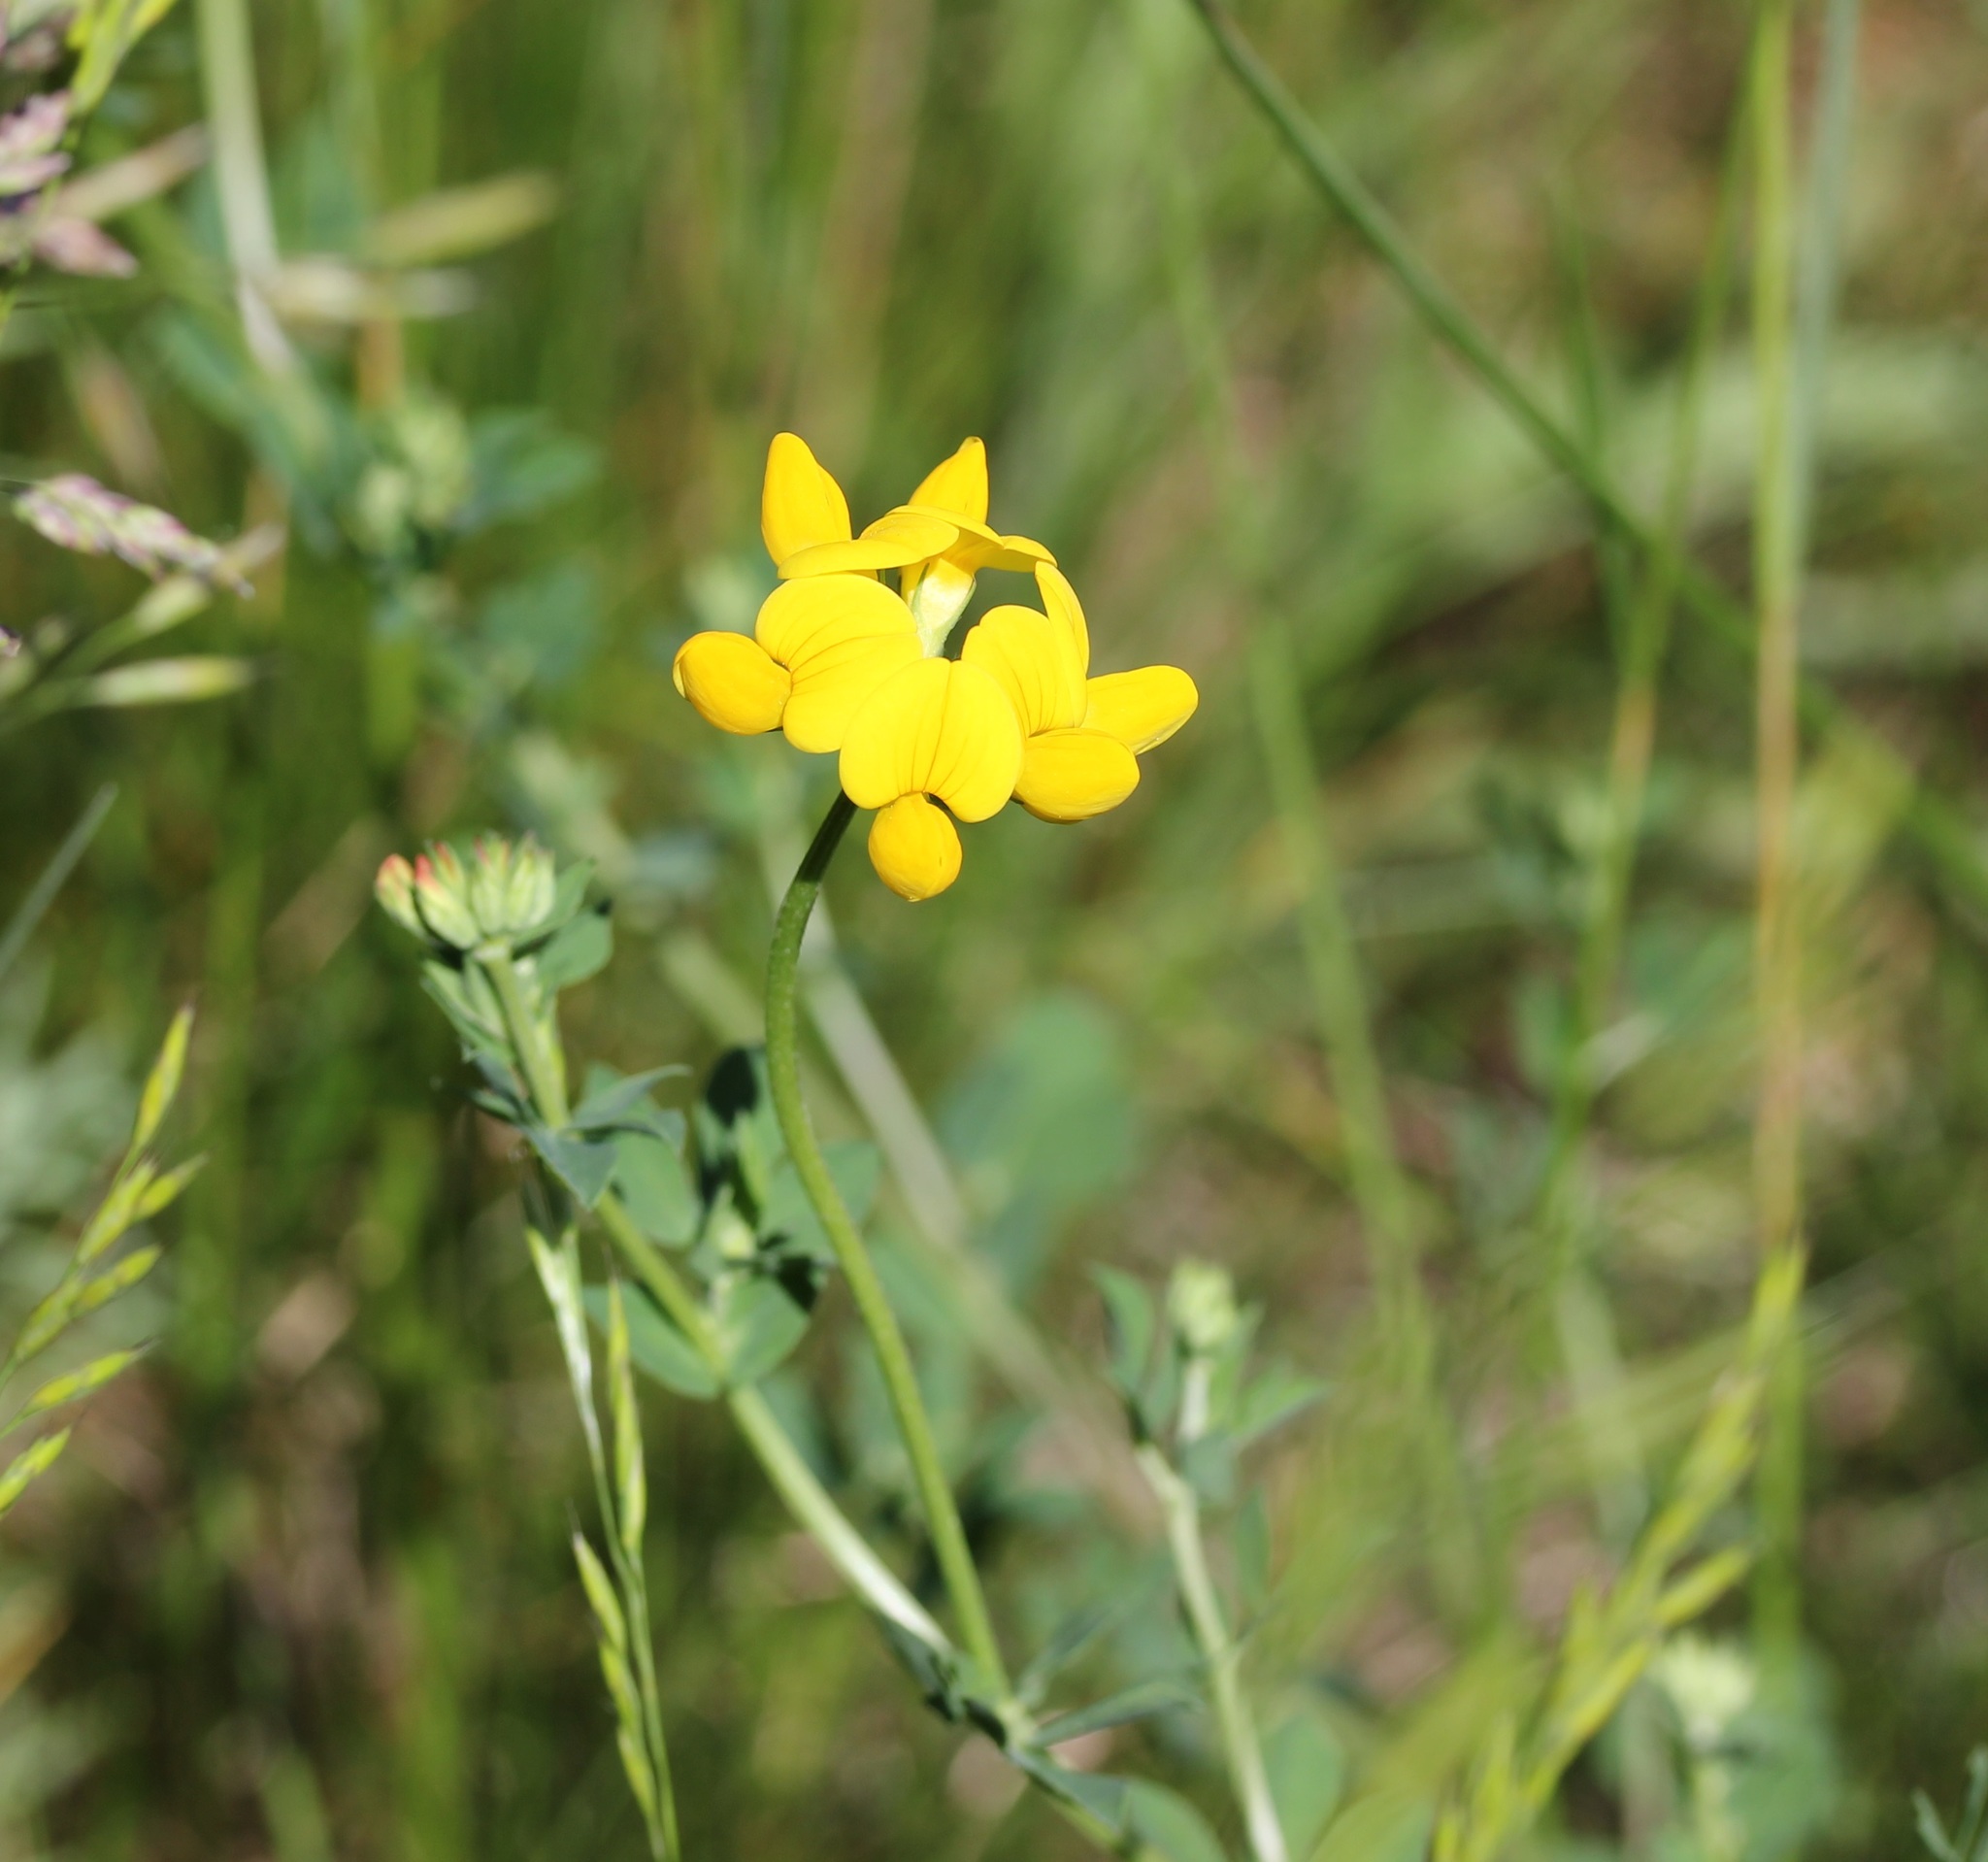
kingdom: Plantae
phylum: Tracheophyta
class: Magnoliopsida
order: Fabales
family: Fabaceae
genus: Lotus
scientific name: Lotus corniculatus
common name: Common bird's-foot-trefoil
